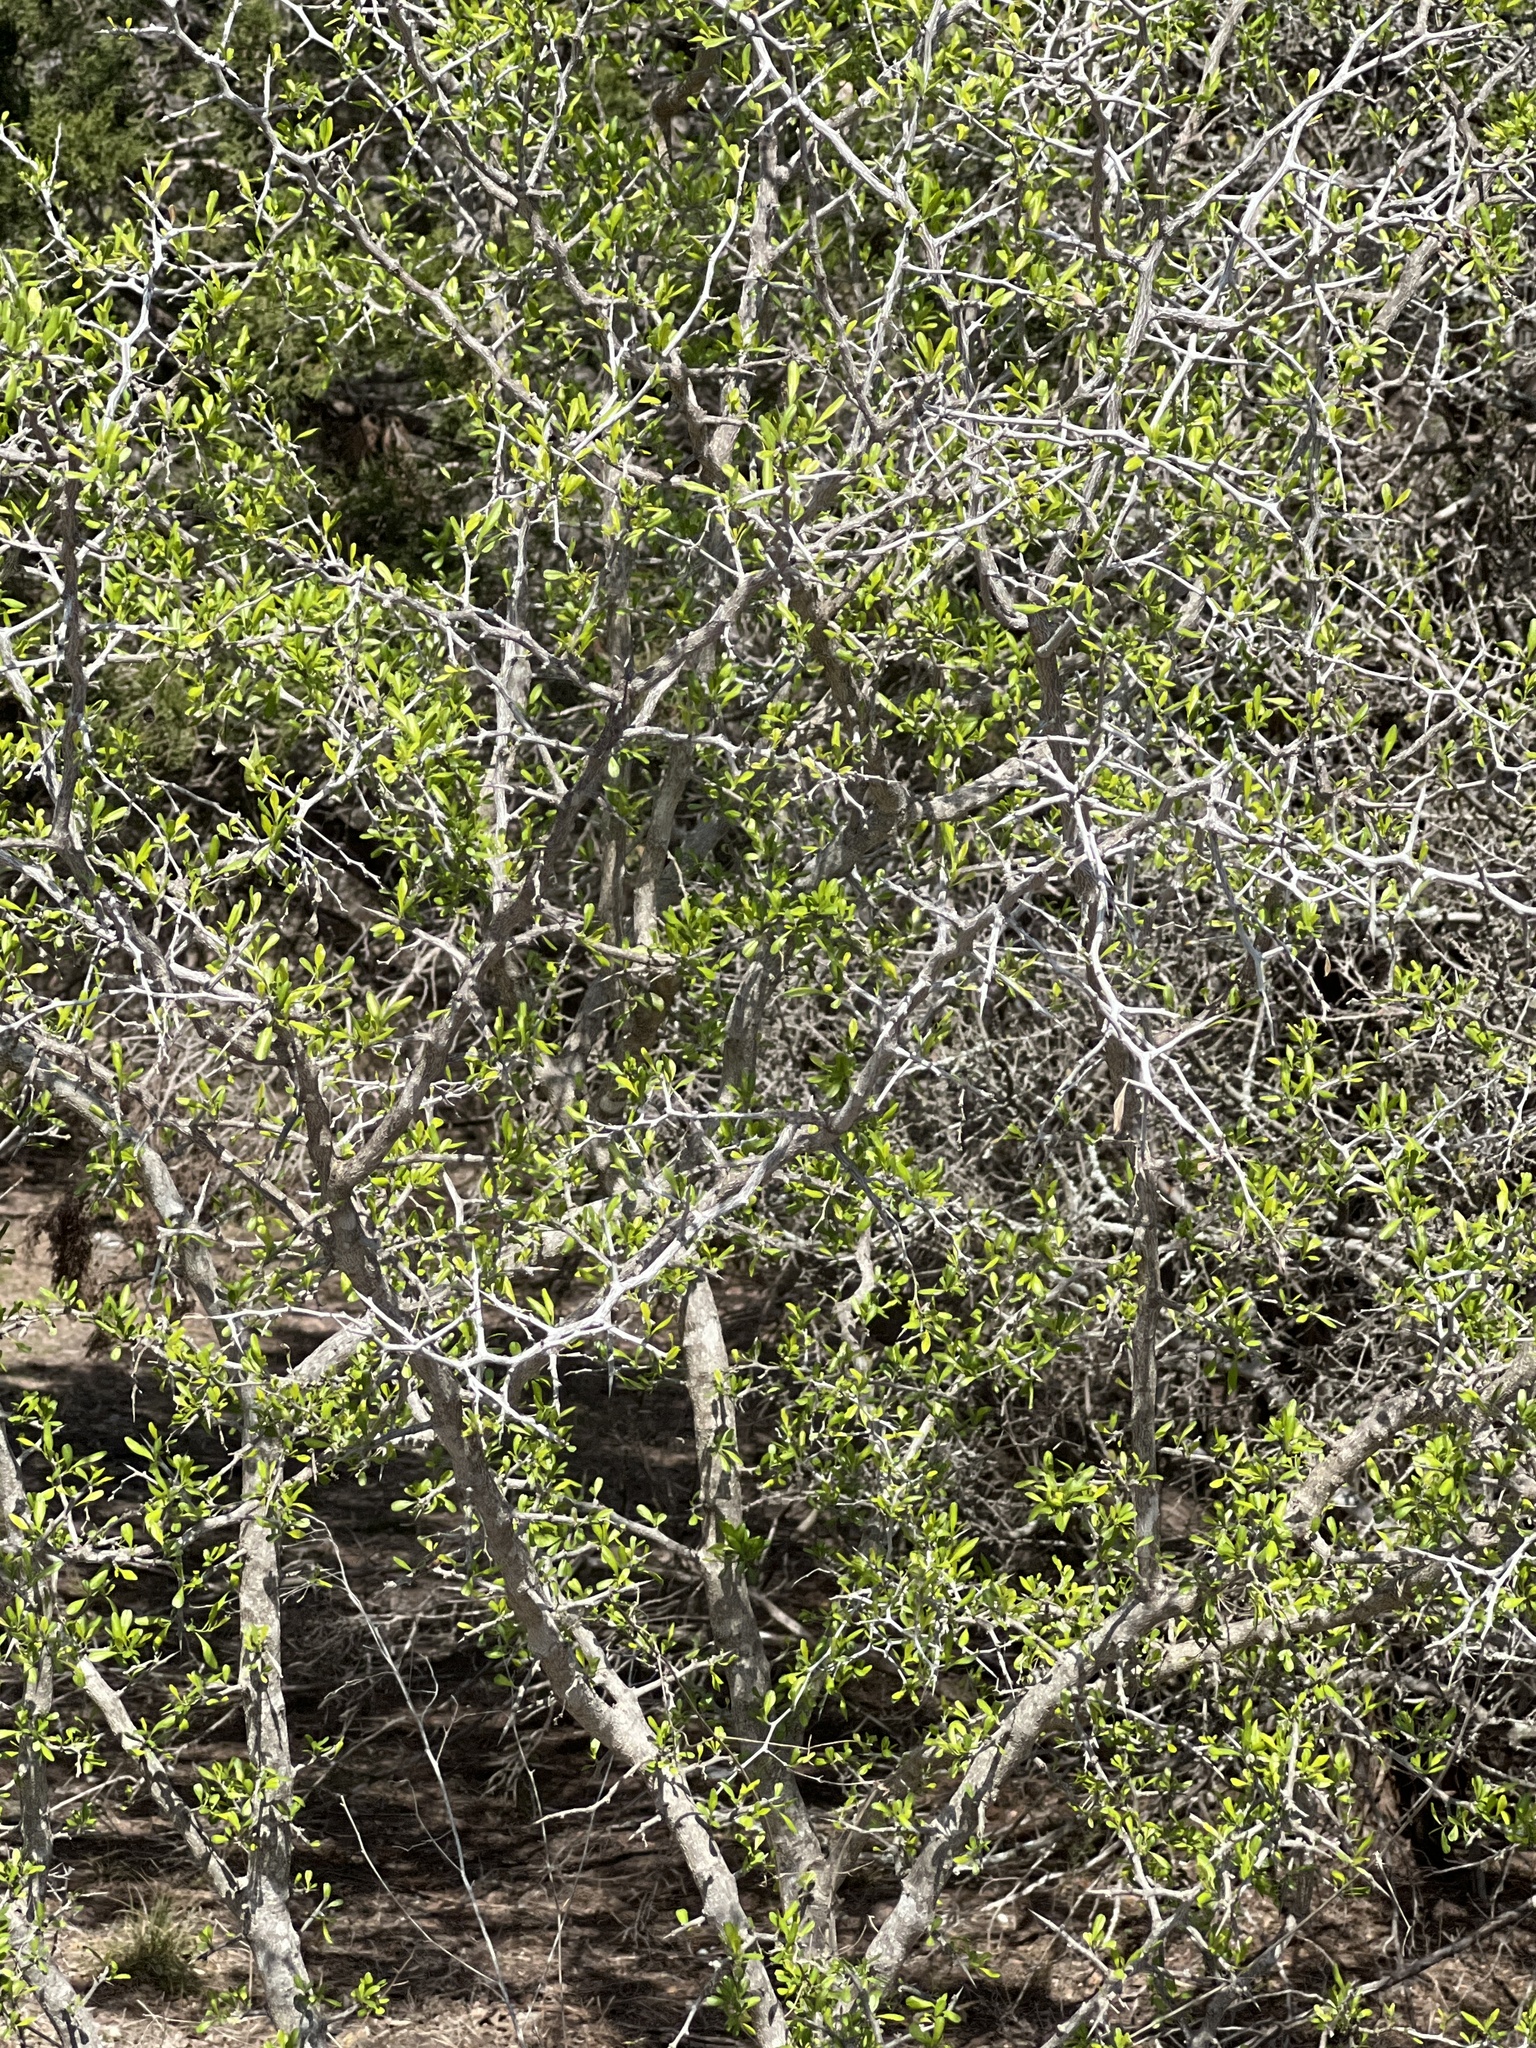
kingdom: Plantae
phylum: Tracheophyta
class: Magnoliopsida
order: Rosales
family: Rhamnaceae
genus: Condalia
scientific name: Condalia hookeri
